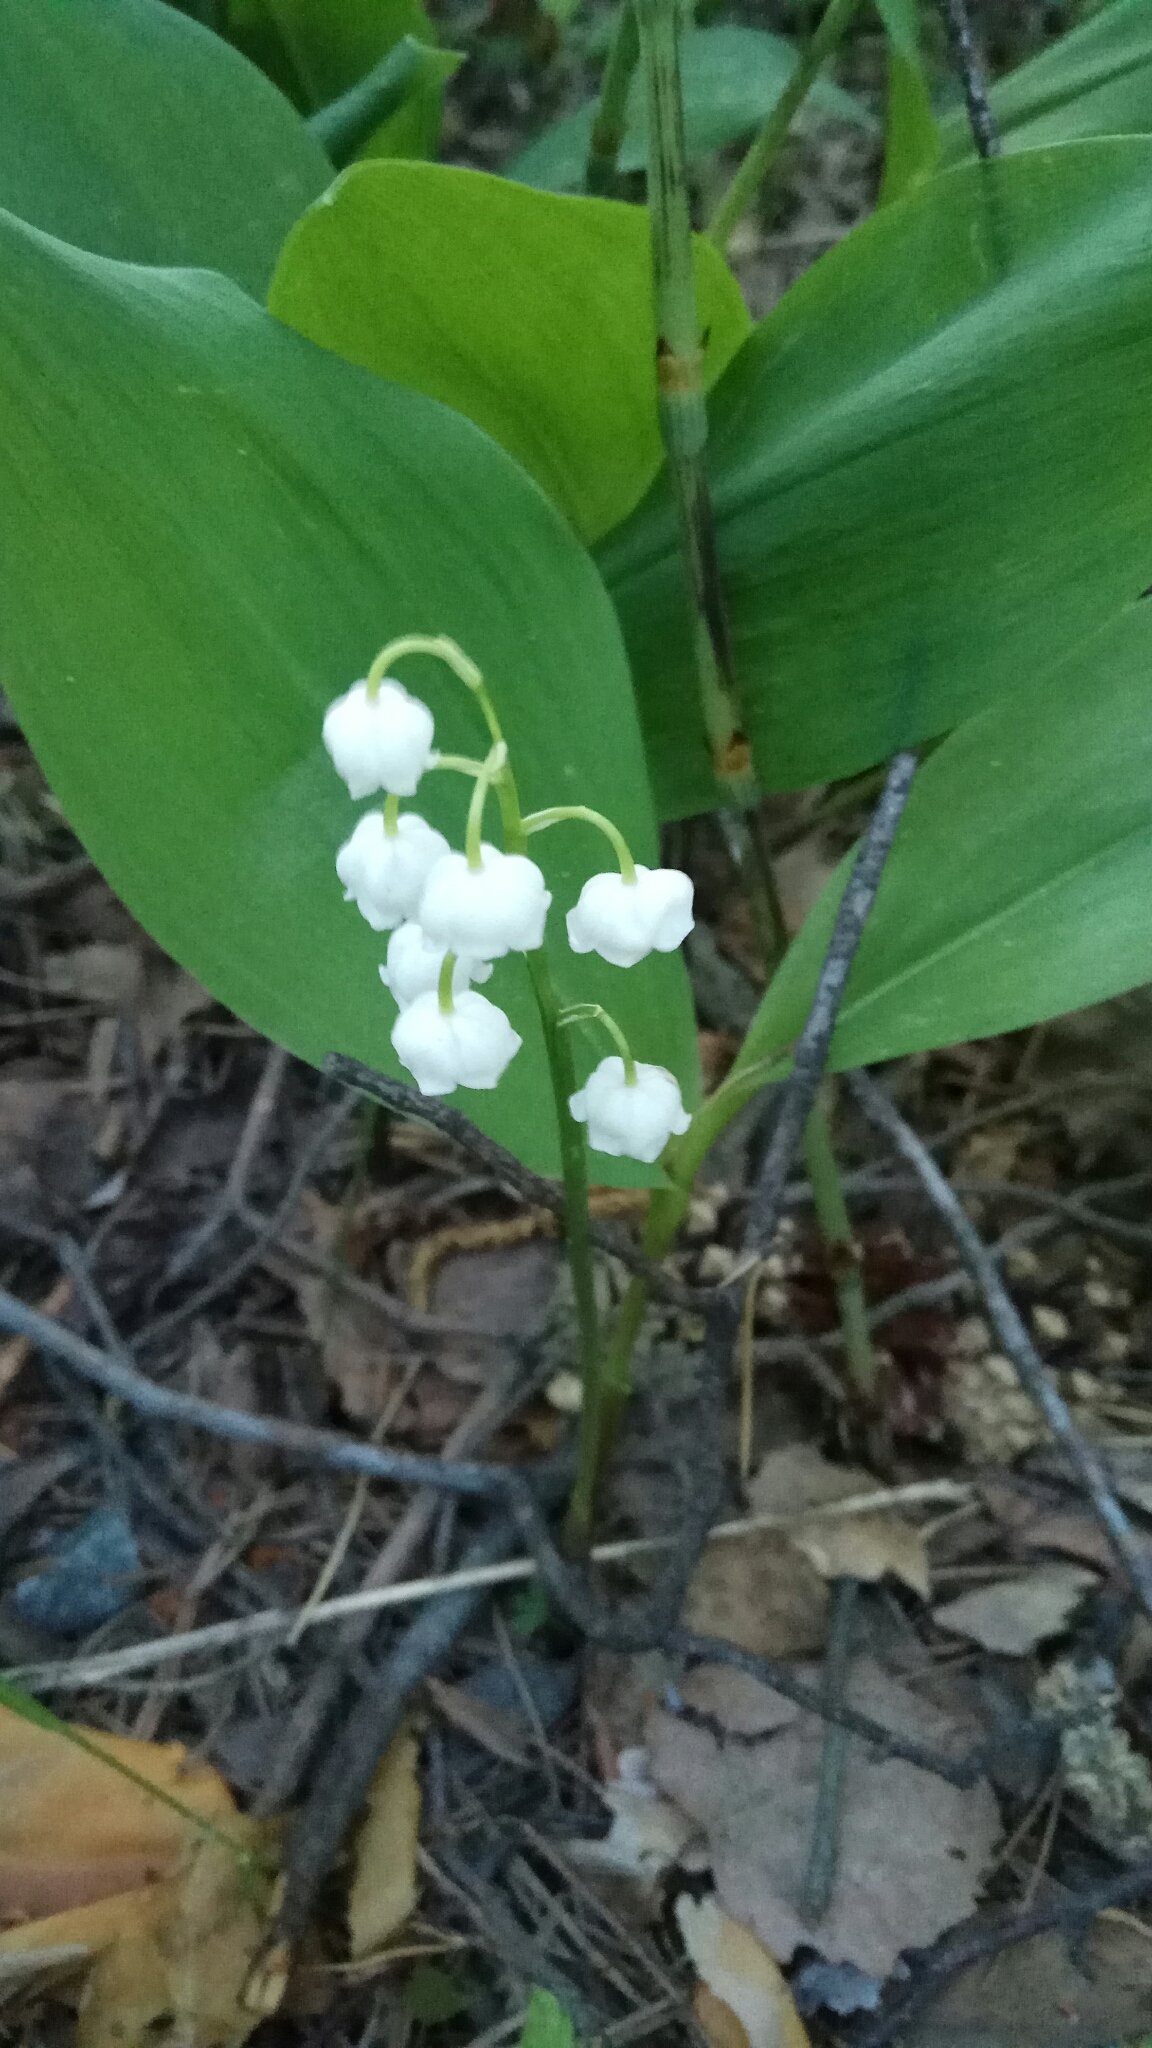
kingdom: Plantae
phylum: Tracheophyta
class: Liliopsida
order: Asparagales
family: Asparagaceae
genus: Convallaria
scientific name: Convallaria majalis
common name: Lily-of-the-valley
